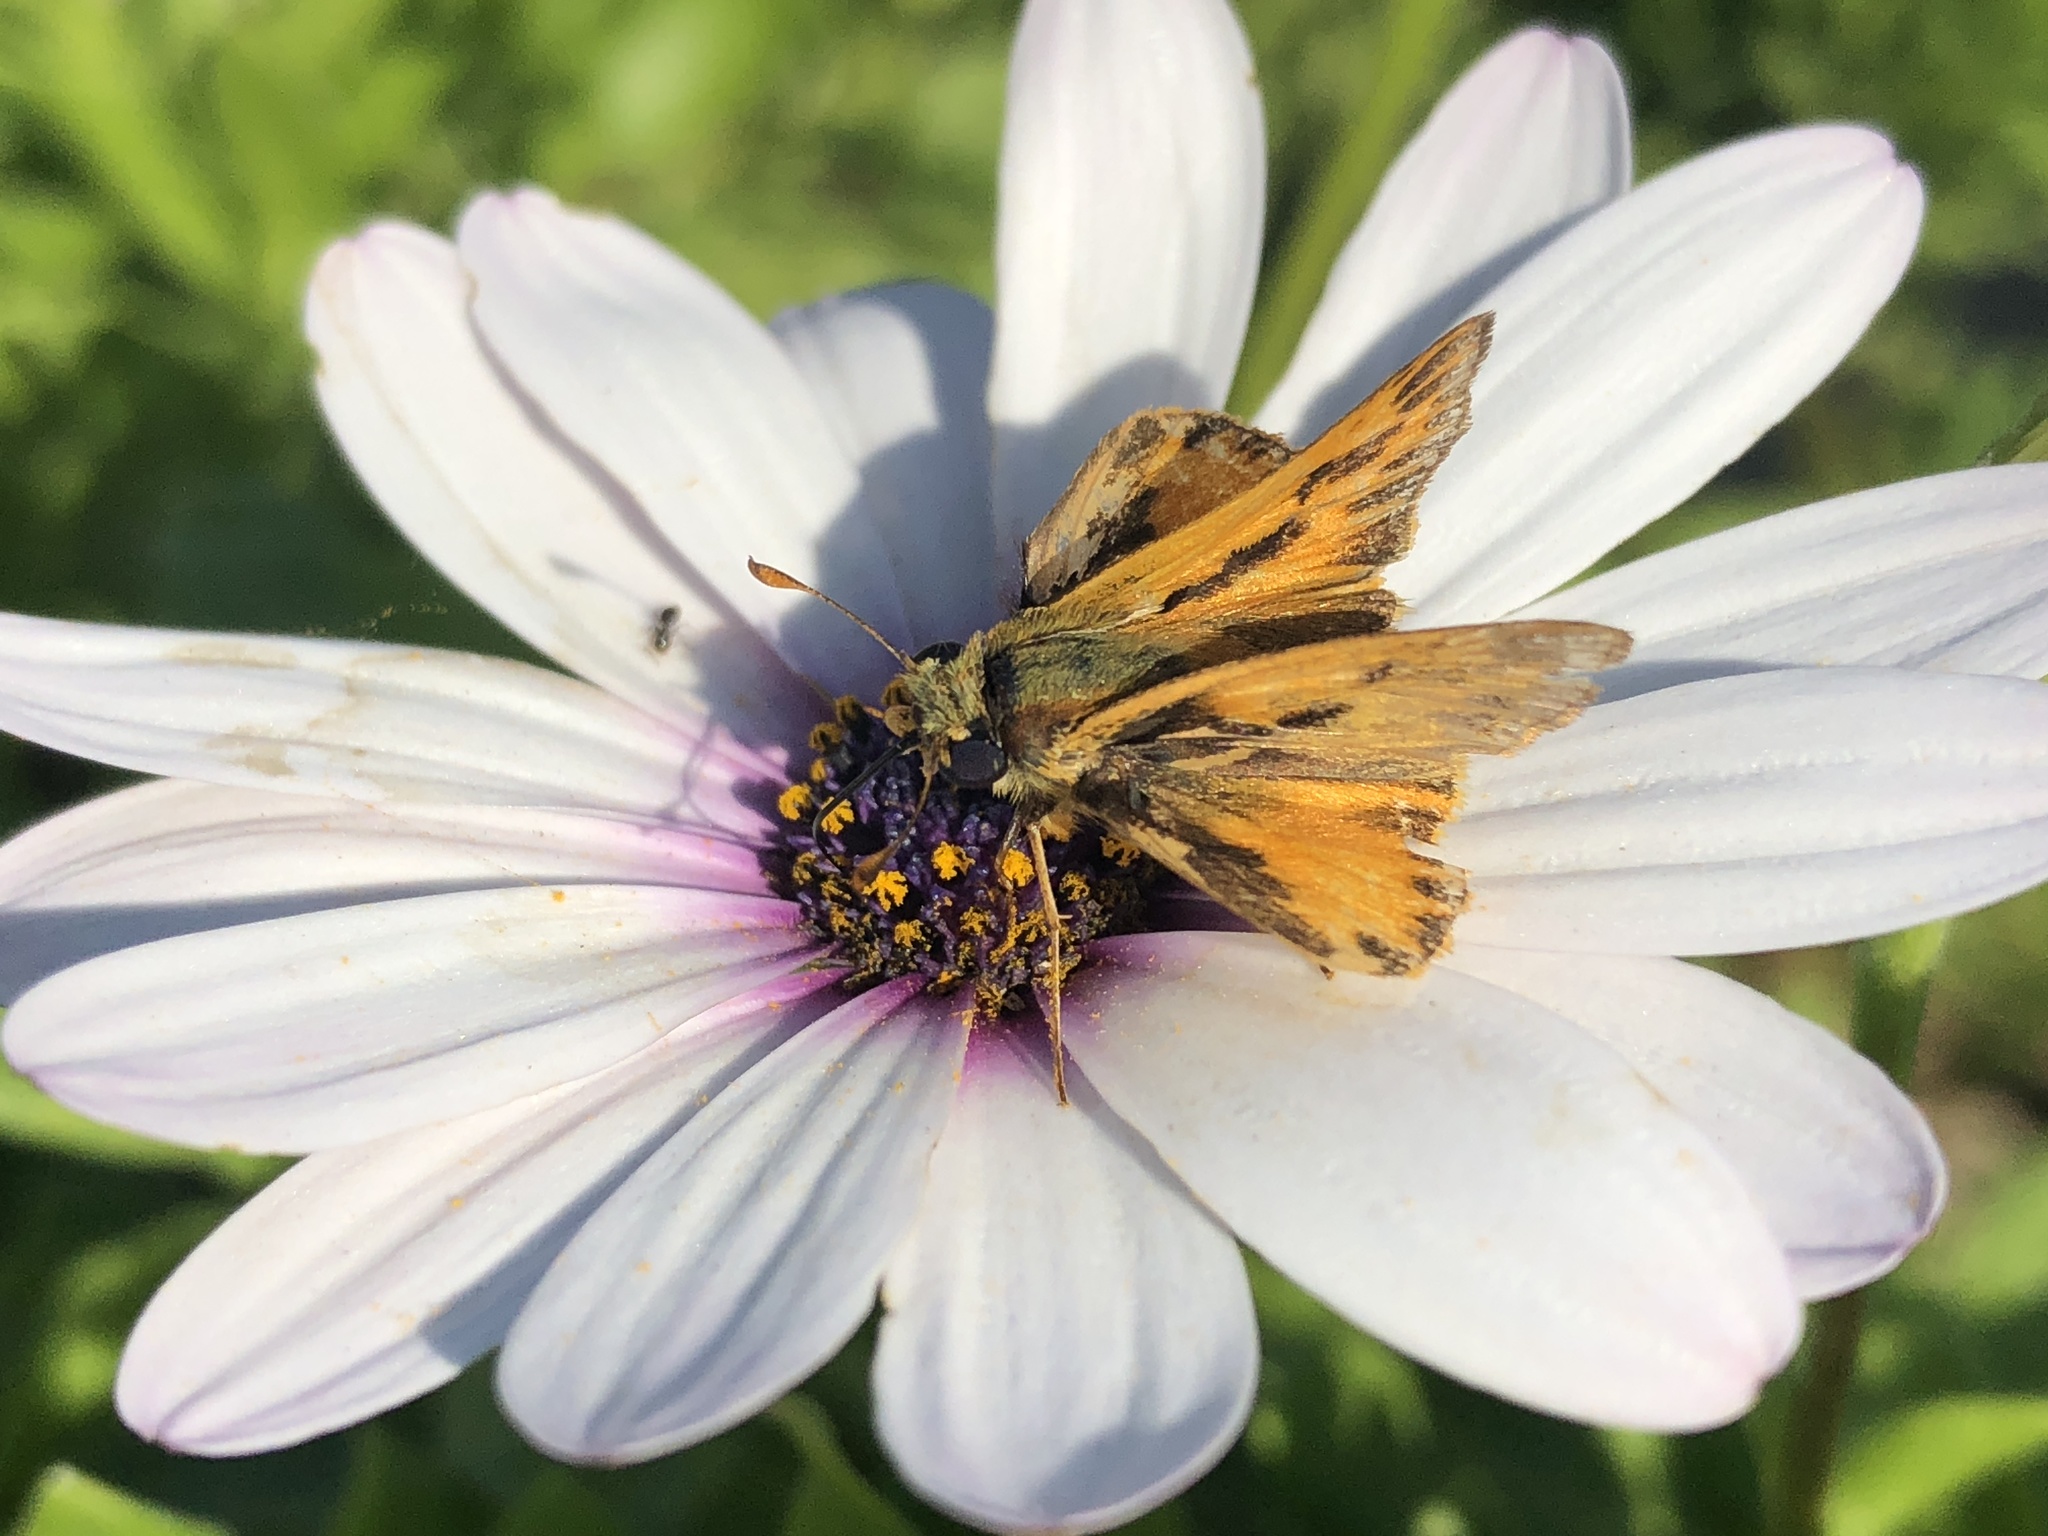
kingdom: Animalia
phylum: Arthropoda
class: Insecta
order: Lepidoptera
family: Hesperiidae
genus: Hylephila
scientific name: Hylephila phyleus
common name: Fiery skipper
